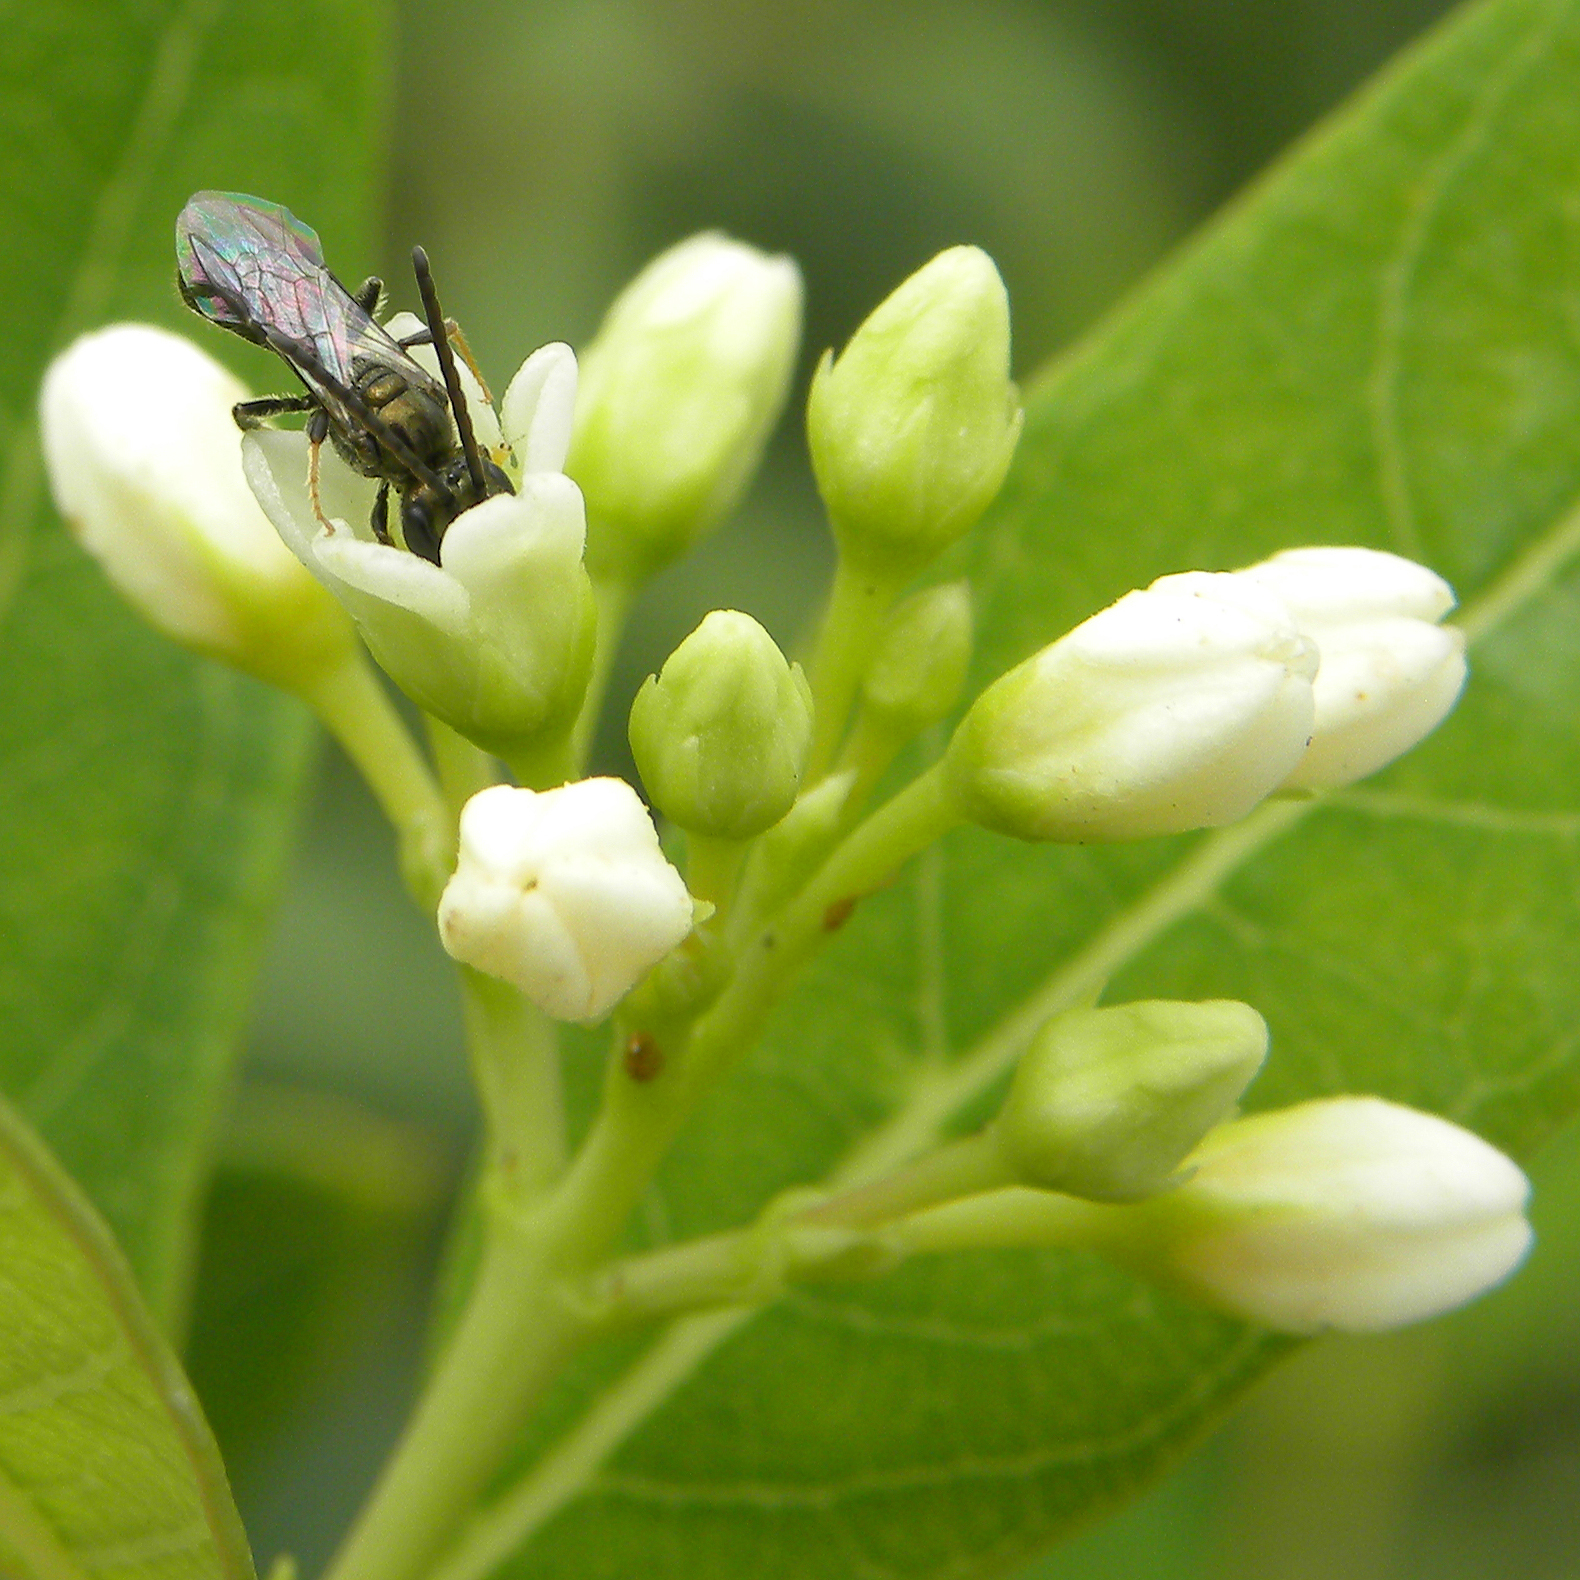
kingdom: Animalia
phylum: Arthropoda
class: Insecta
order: Hymenoptera
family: Halictidae
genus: Dialictus
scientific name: Dialictus
